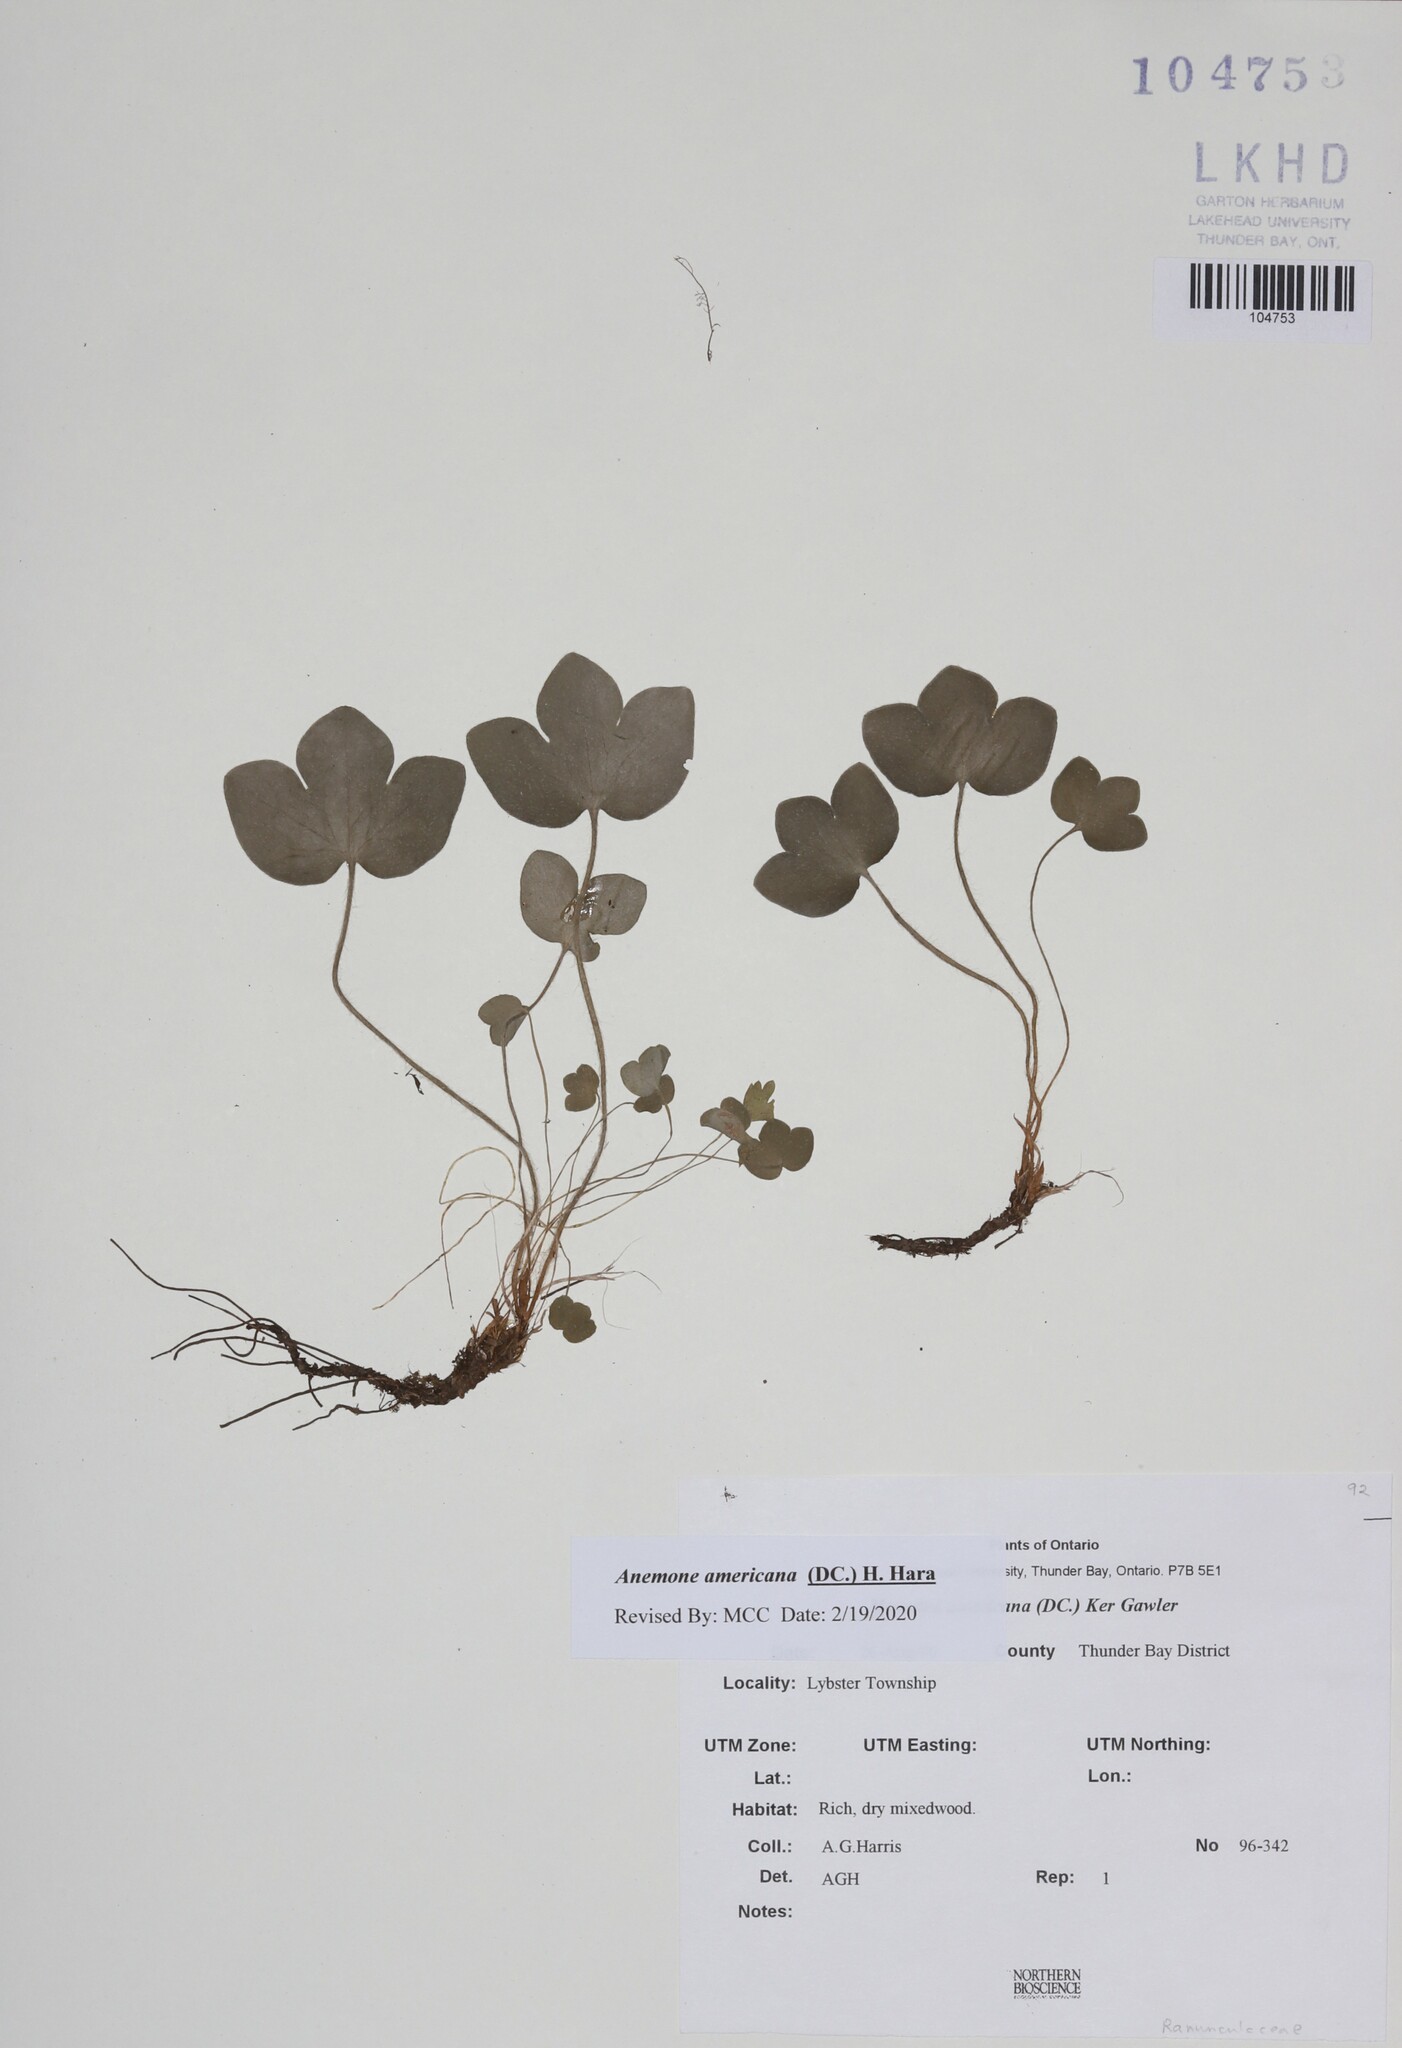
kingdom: Plantae
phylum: Tracheophyta
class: Magnoliopsida
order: Ranunculales
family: Ranunculaceae
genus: Hepatica
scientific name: Hepatica americana
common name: American hepatica
